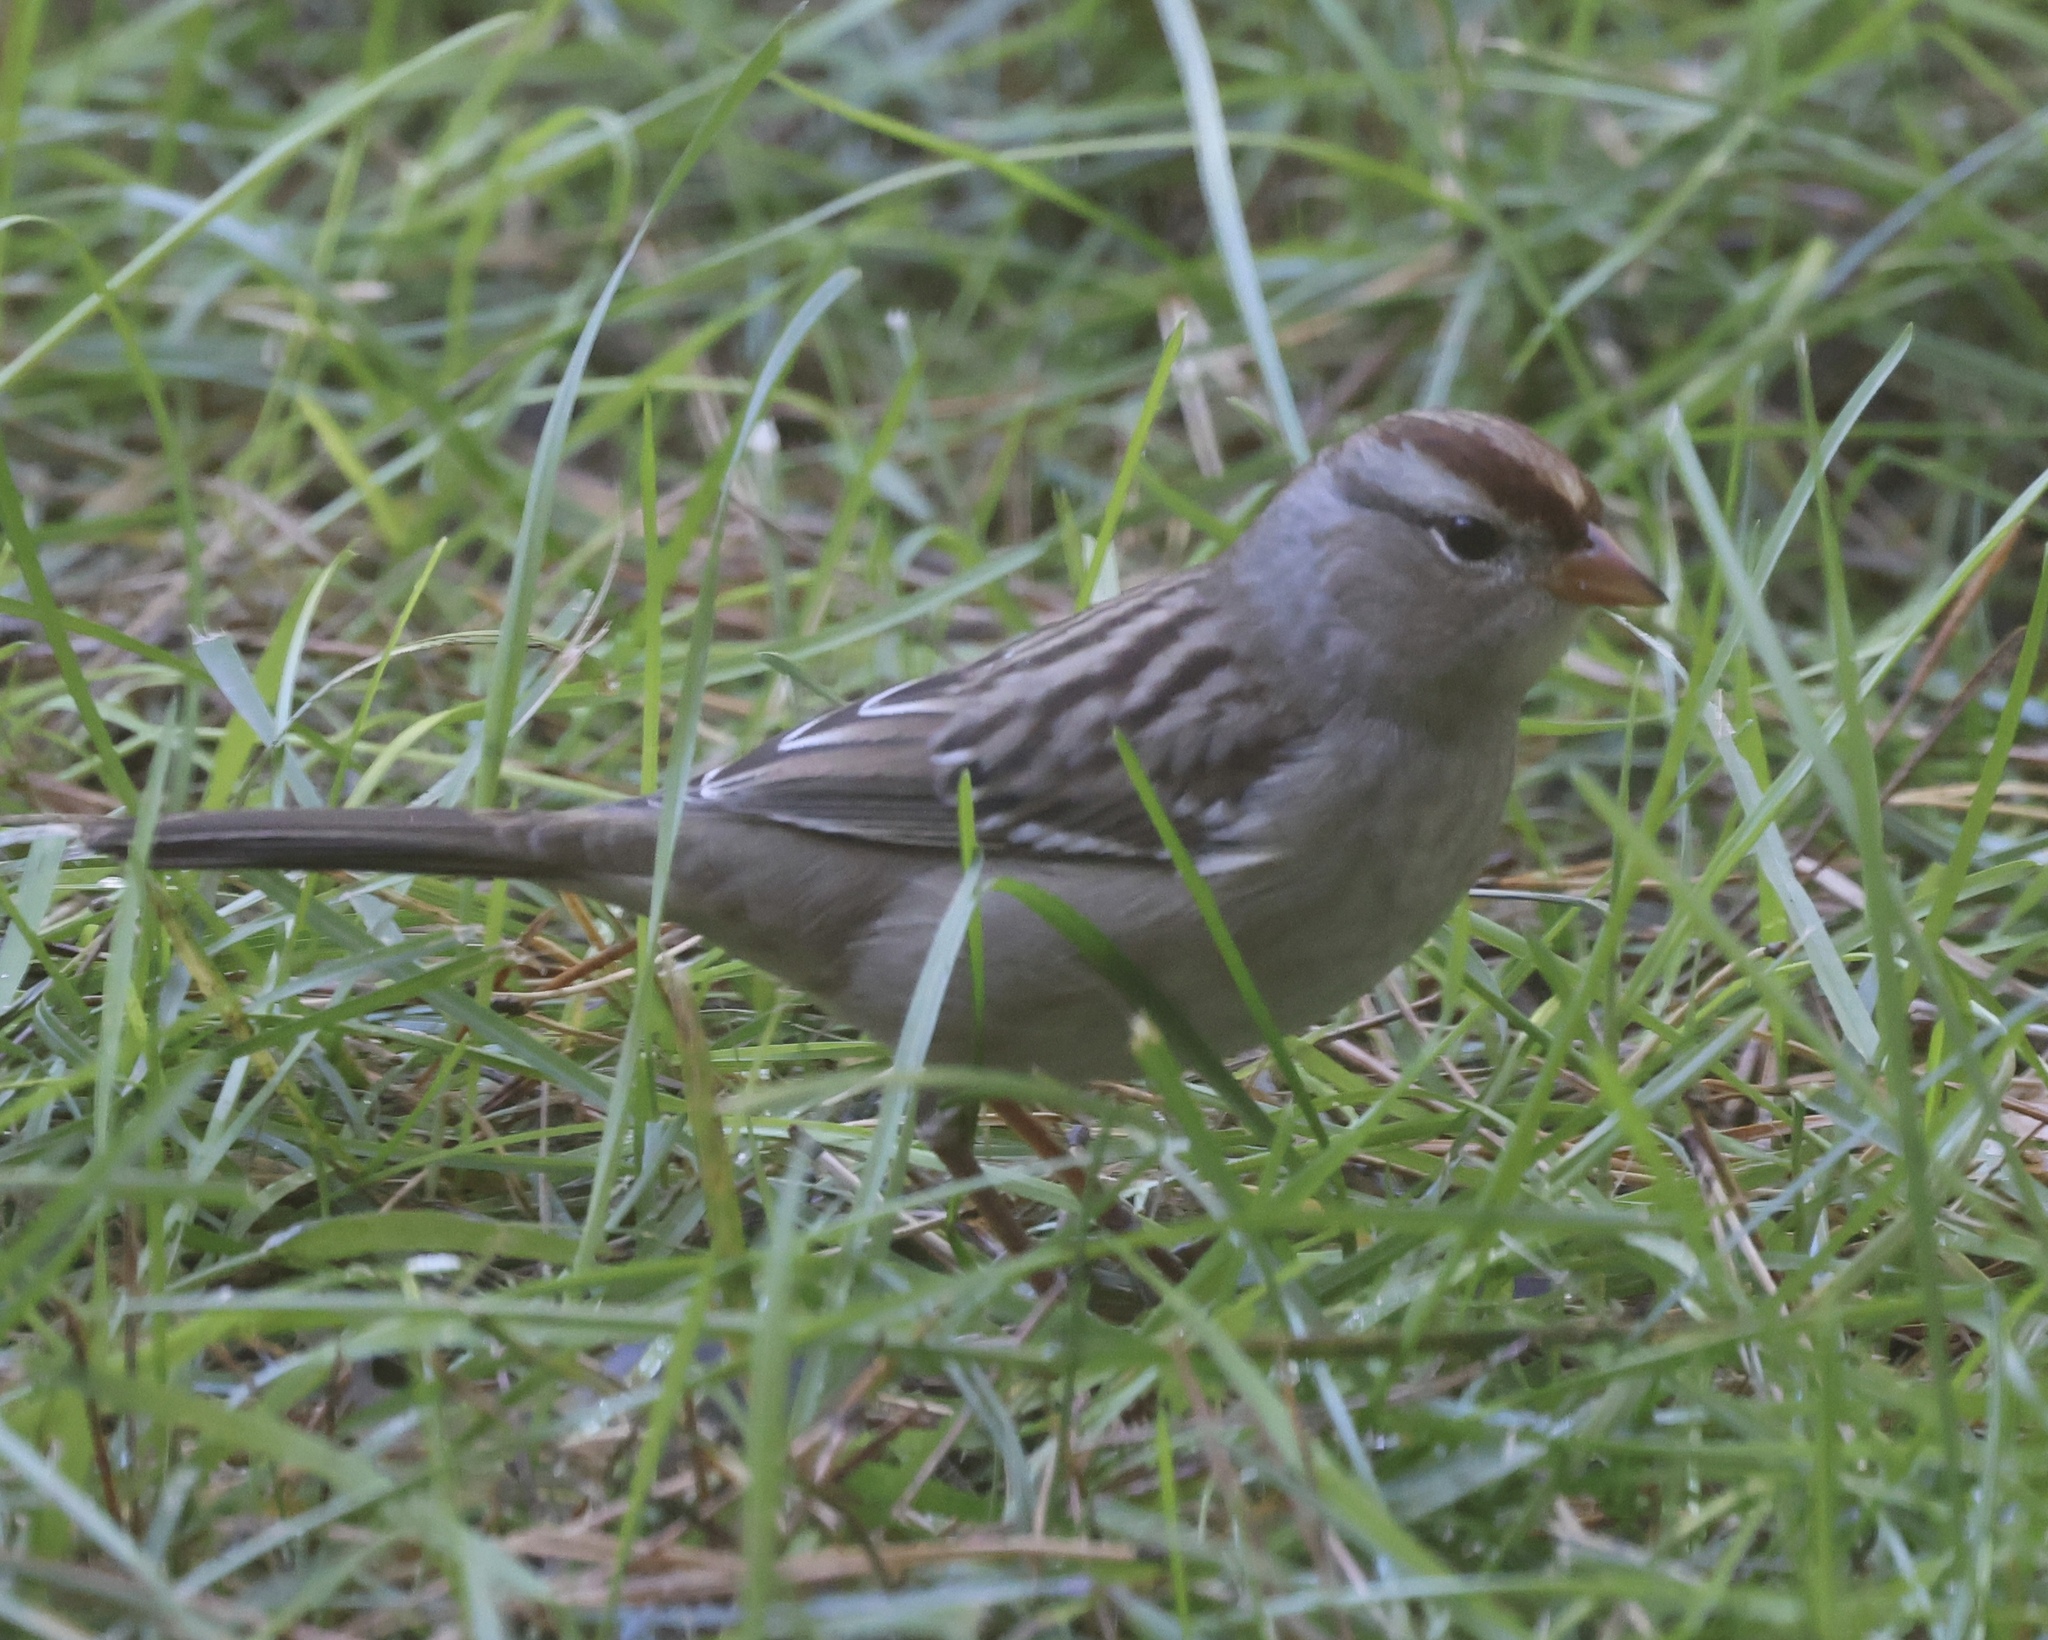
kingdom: Animalia
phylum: Chordata
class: Aves
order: Passeriformes
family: Passerellidae
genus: Zonotrichia
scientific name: Zonotrichia leucophrys
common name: White-crowned sparrow
